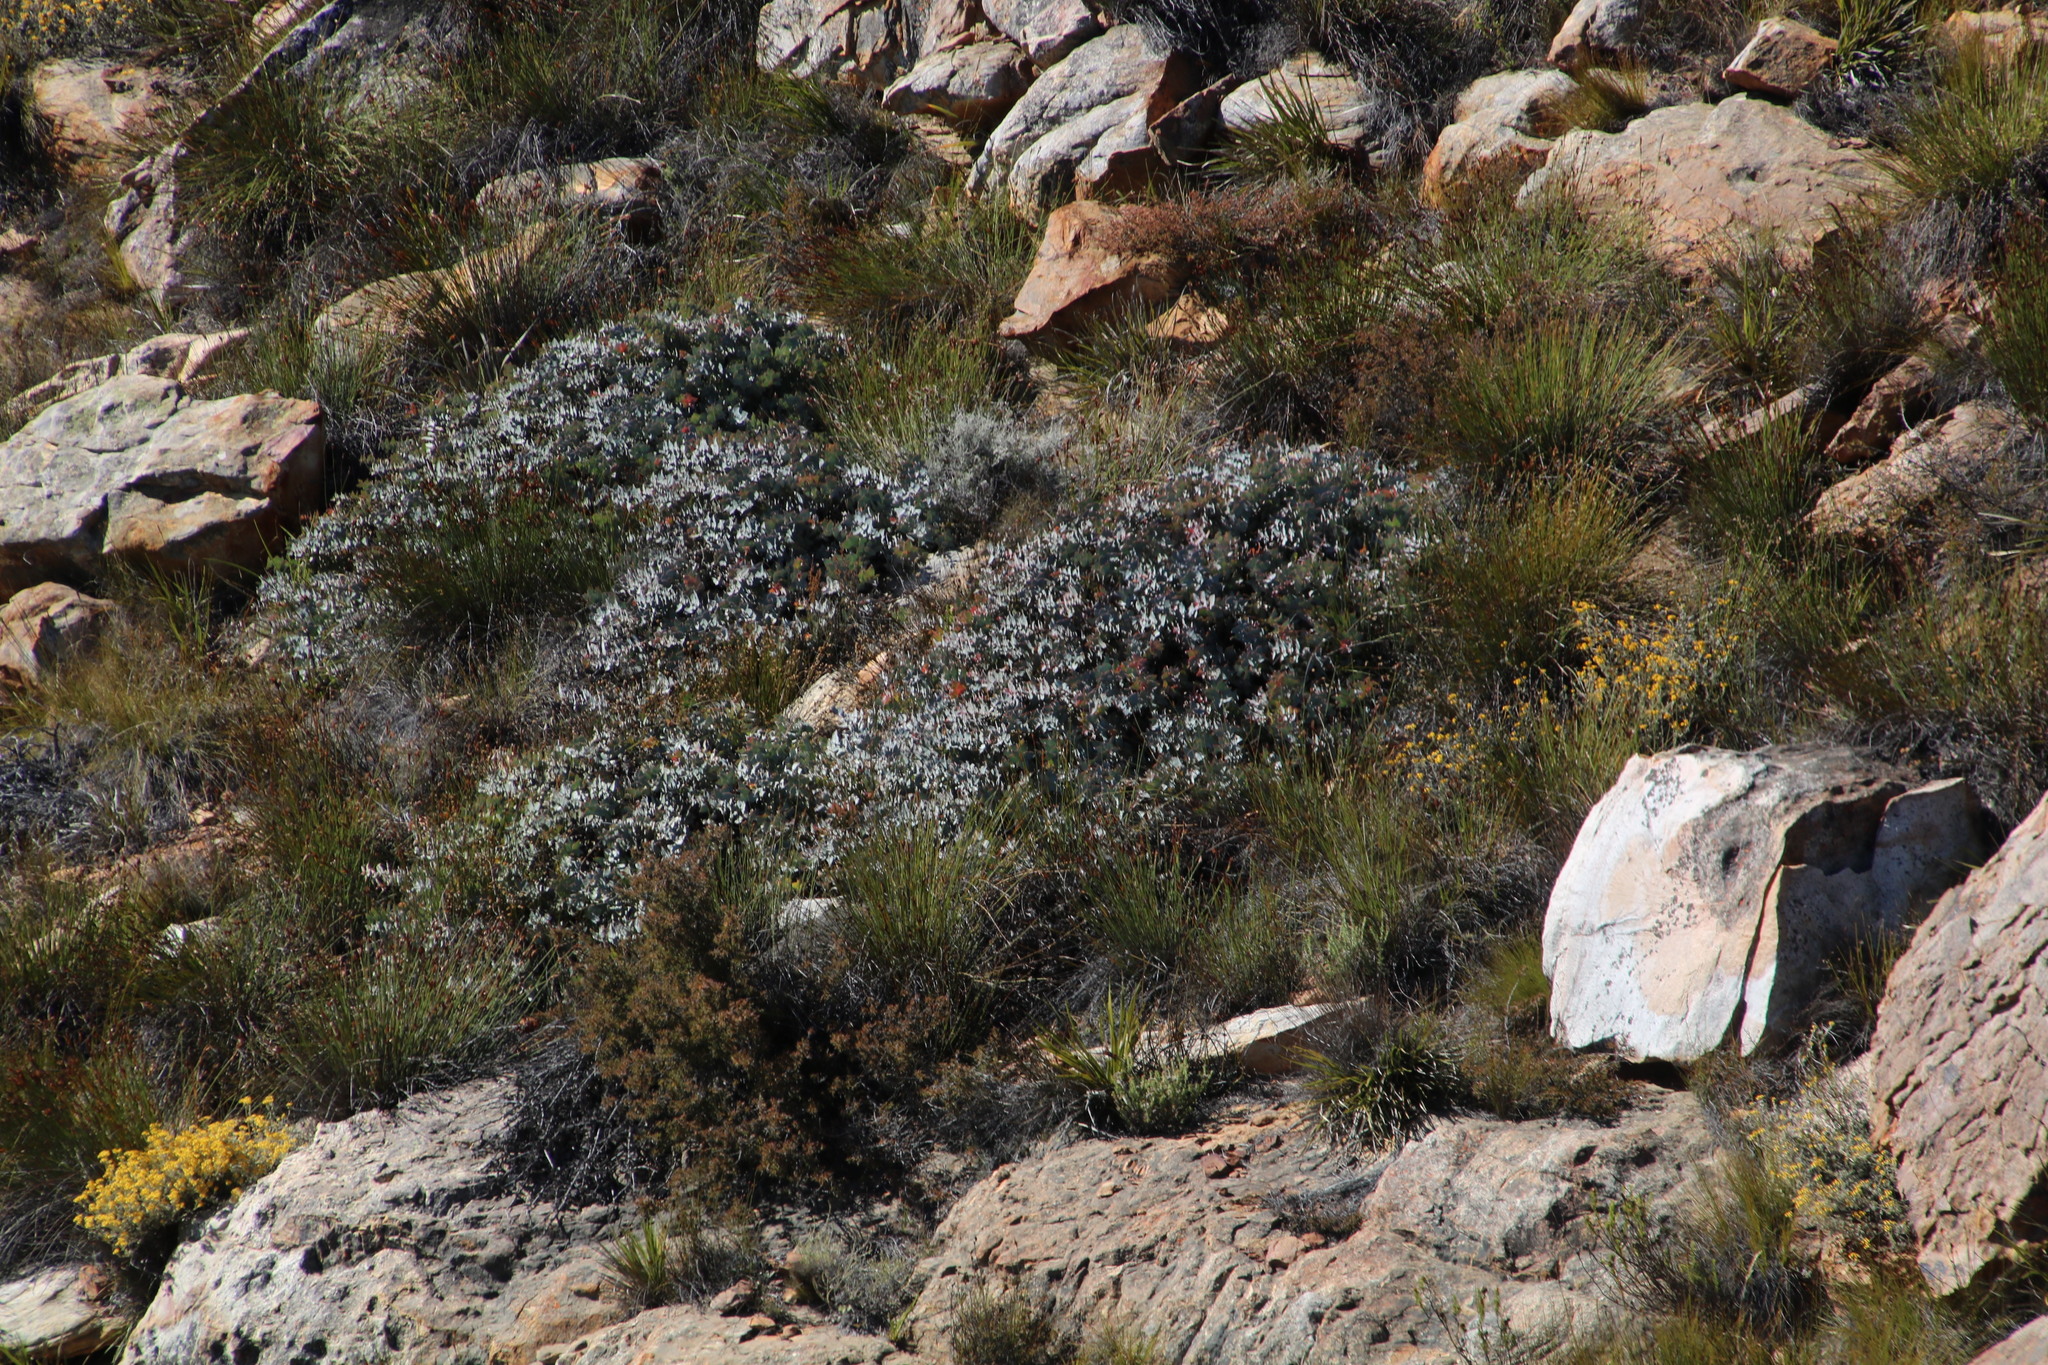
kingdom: Plantae
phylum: Tracheophyta
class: Magnoliopsida
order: Proteales
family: Proteaceae
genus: Protea
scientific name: Protea amplexicaulis
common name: Clasping-leaf sugarbush
